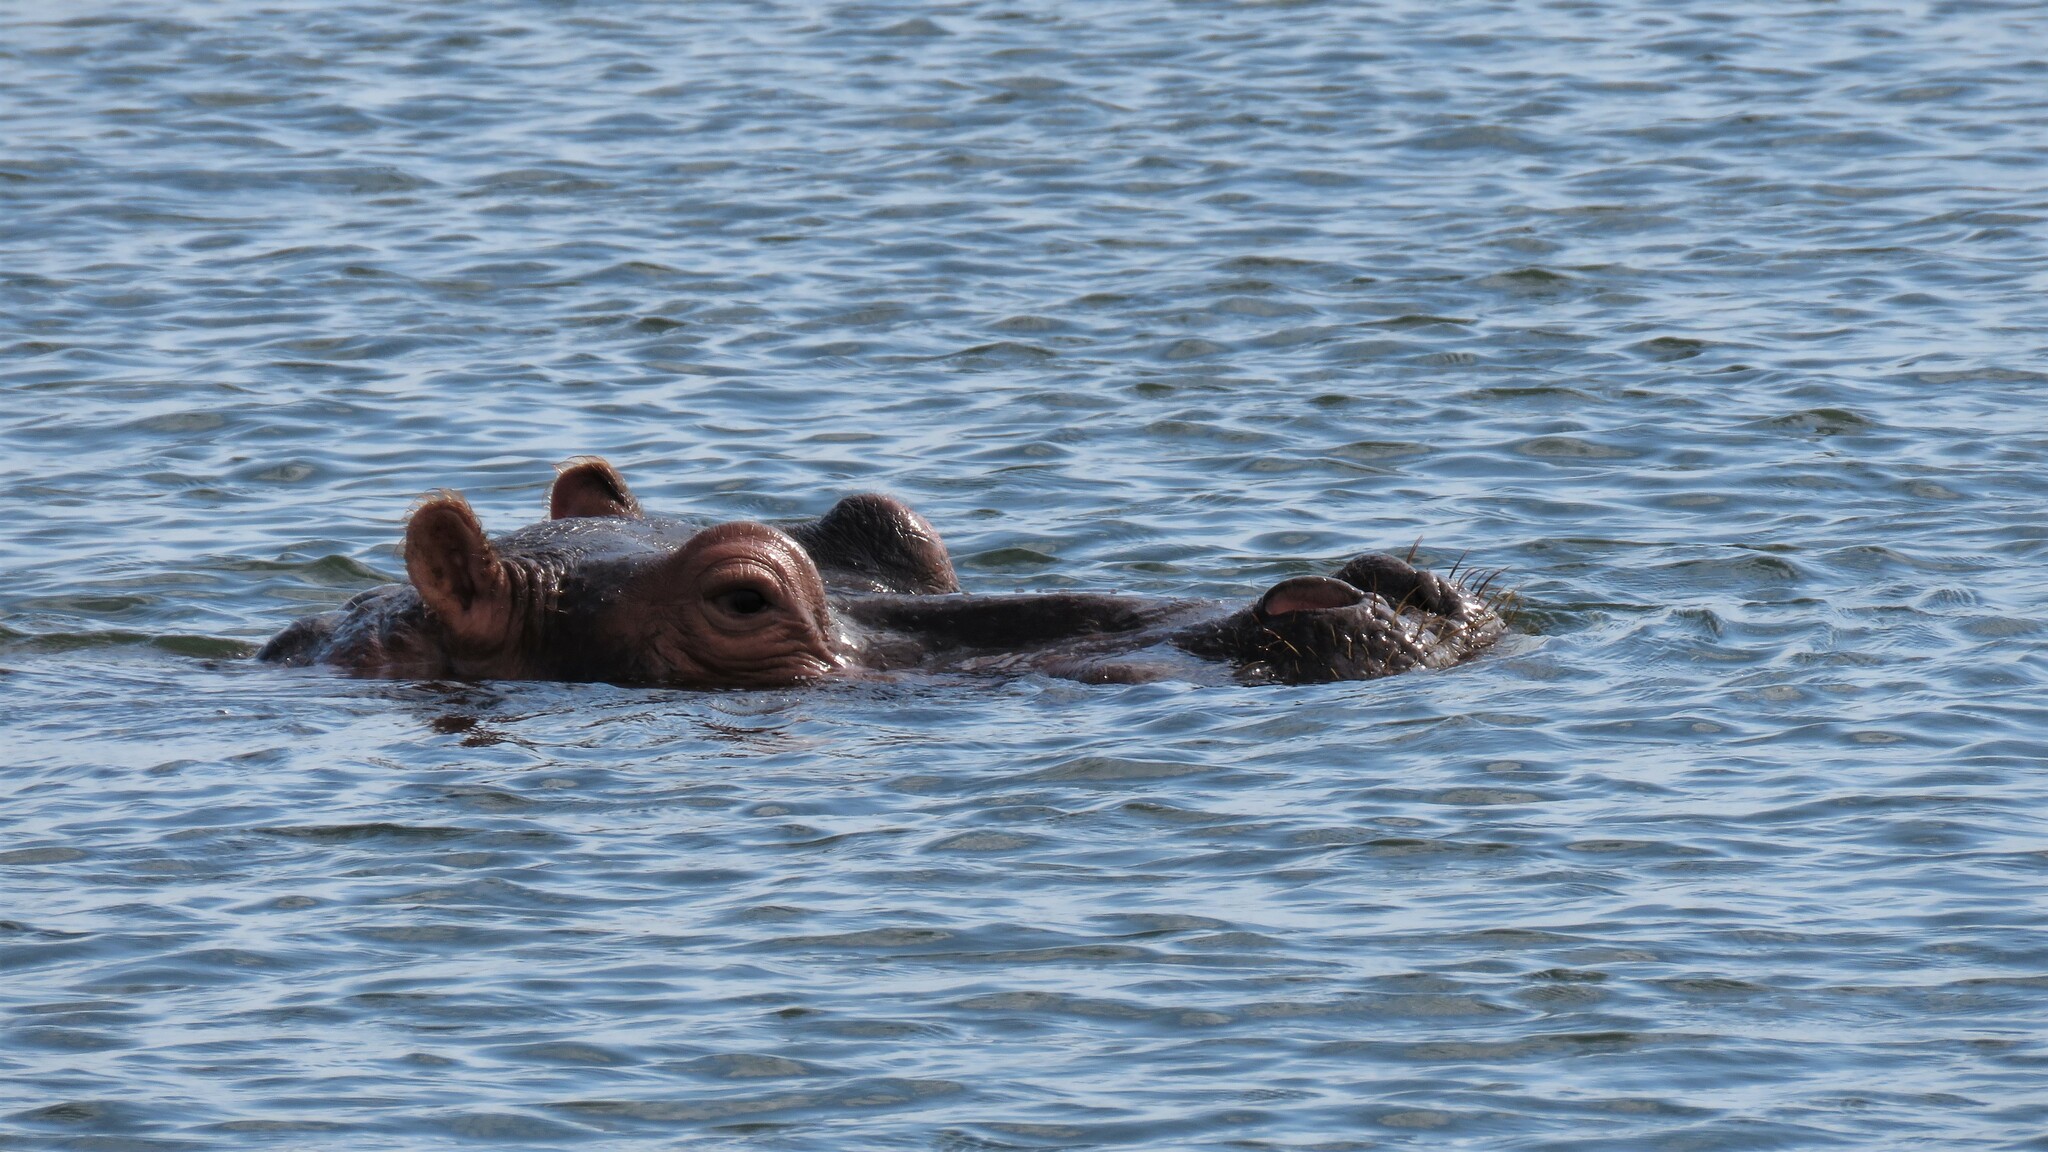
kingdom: Animalia
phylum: Chordata
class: Mammalia
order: Artiodactyla
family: Hippopotamidae
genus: Hippopotamus
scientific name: Hippopotamus amphibius
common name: Common hippopotamus
